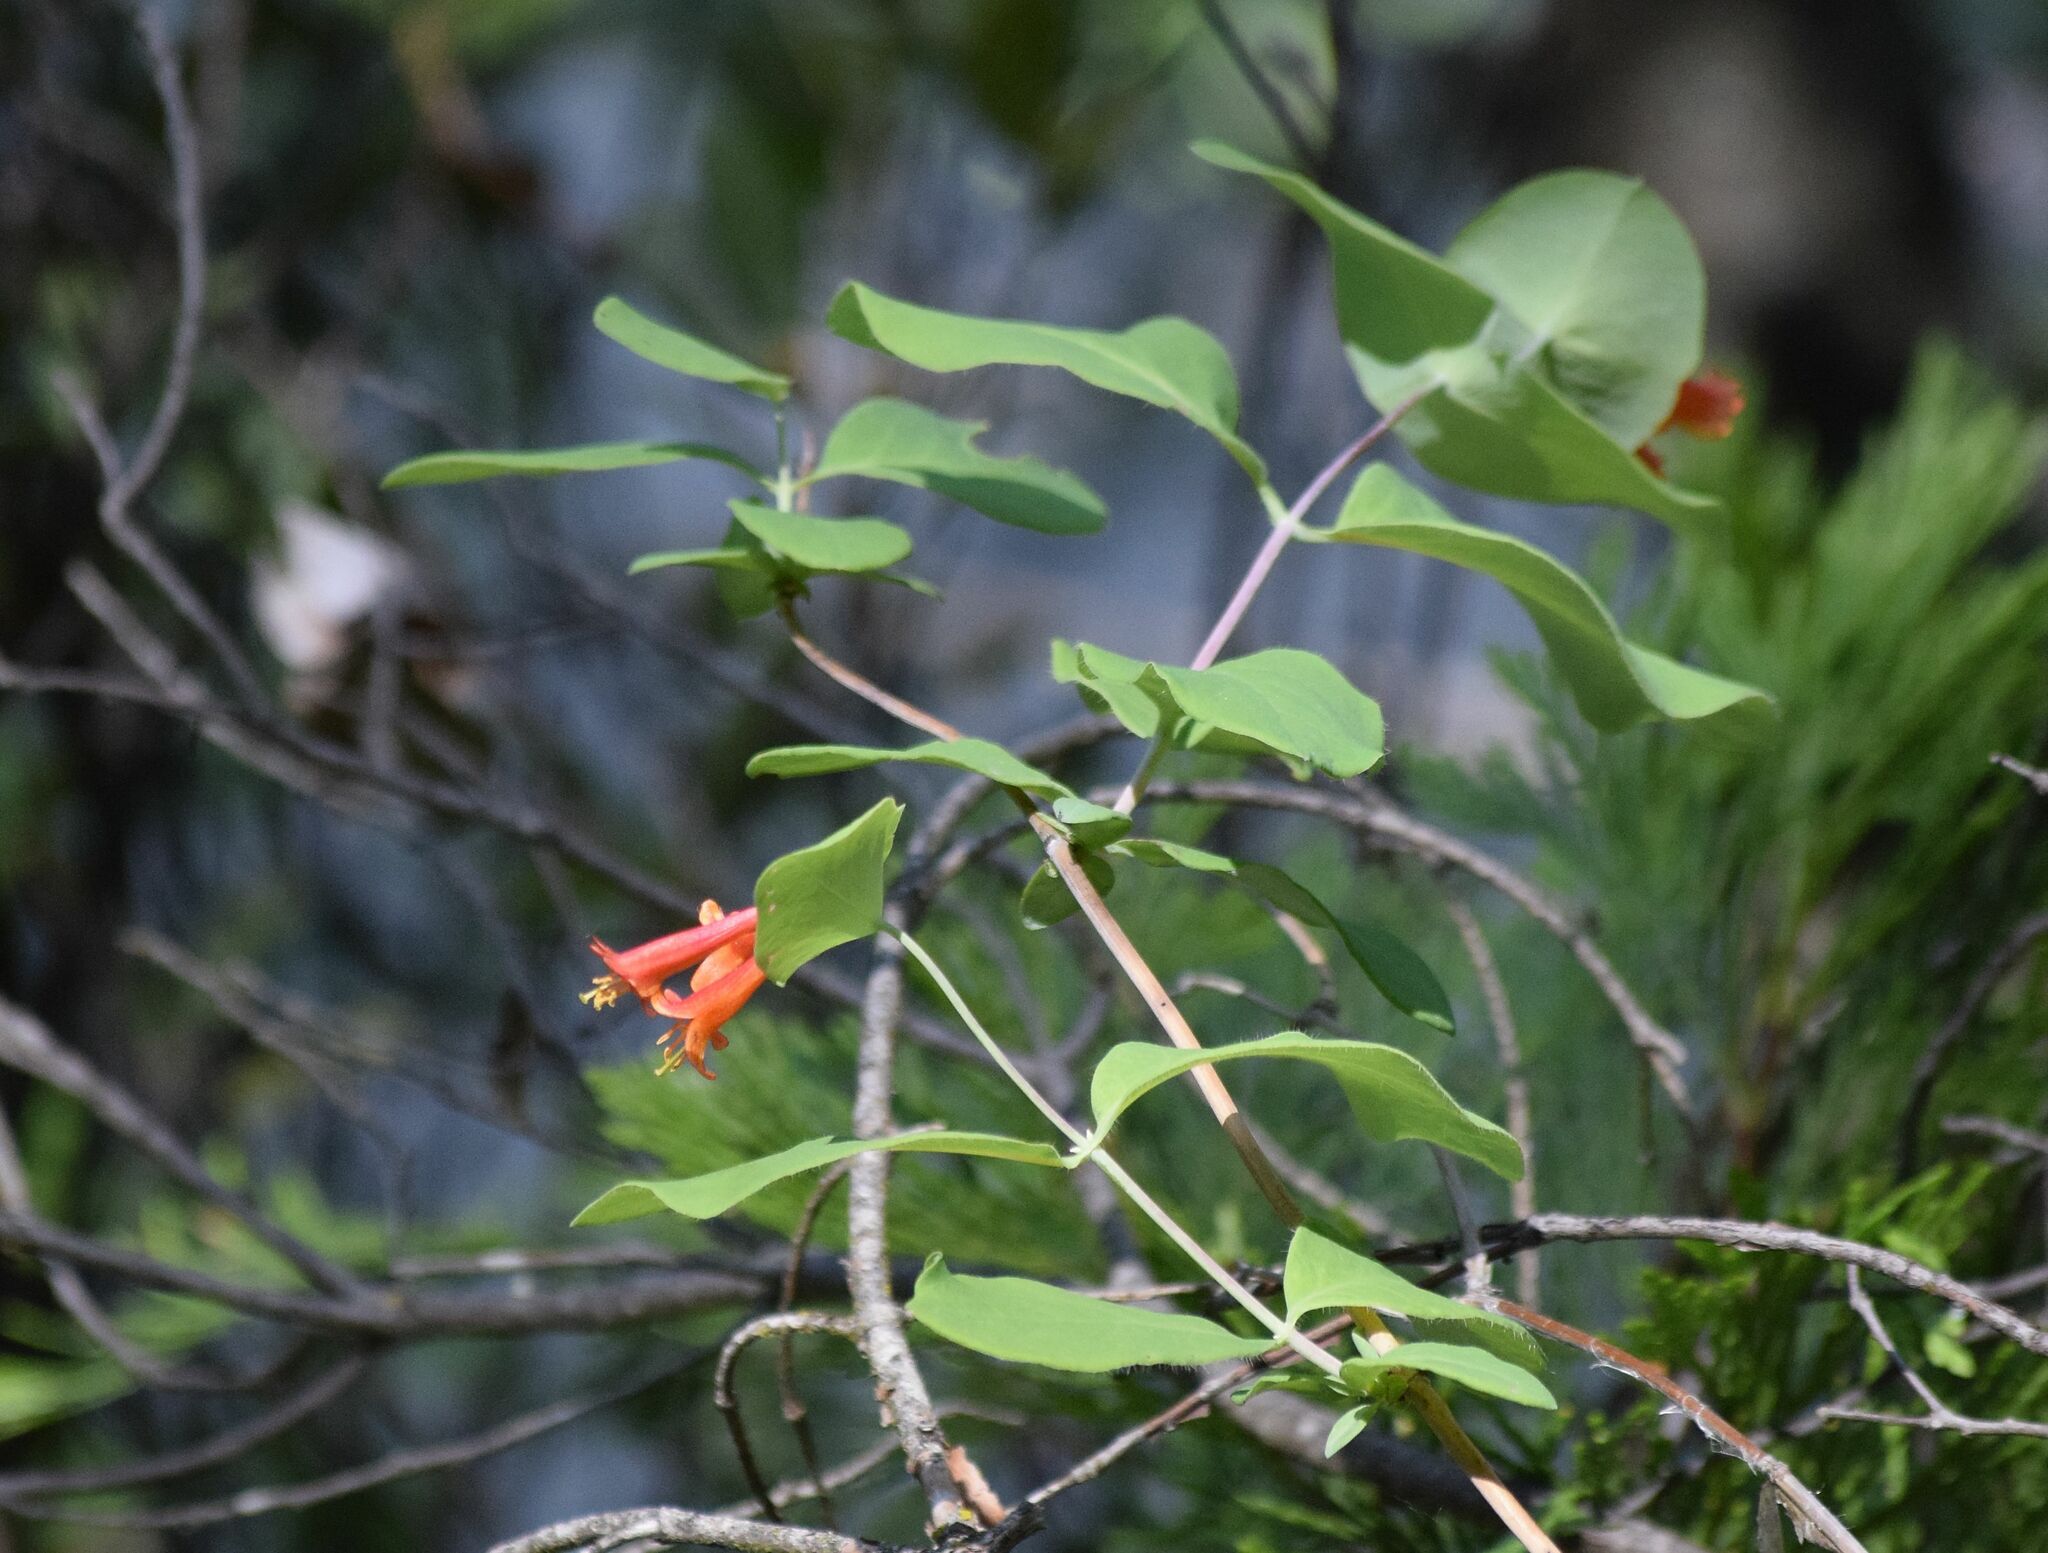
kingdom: Plantae
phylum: Tracheophyta
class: Magnoliopsida
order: Dipsacales
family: Caprifoliaceae
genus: Lonicera
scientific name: Lonicera ciliosa
